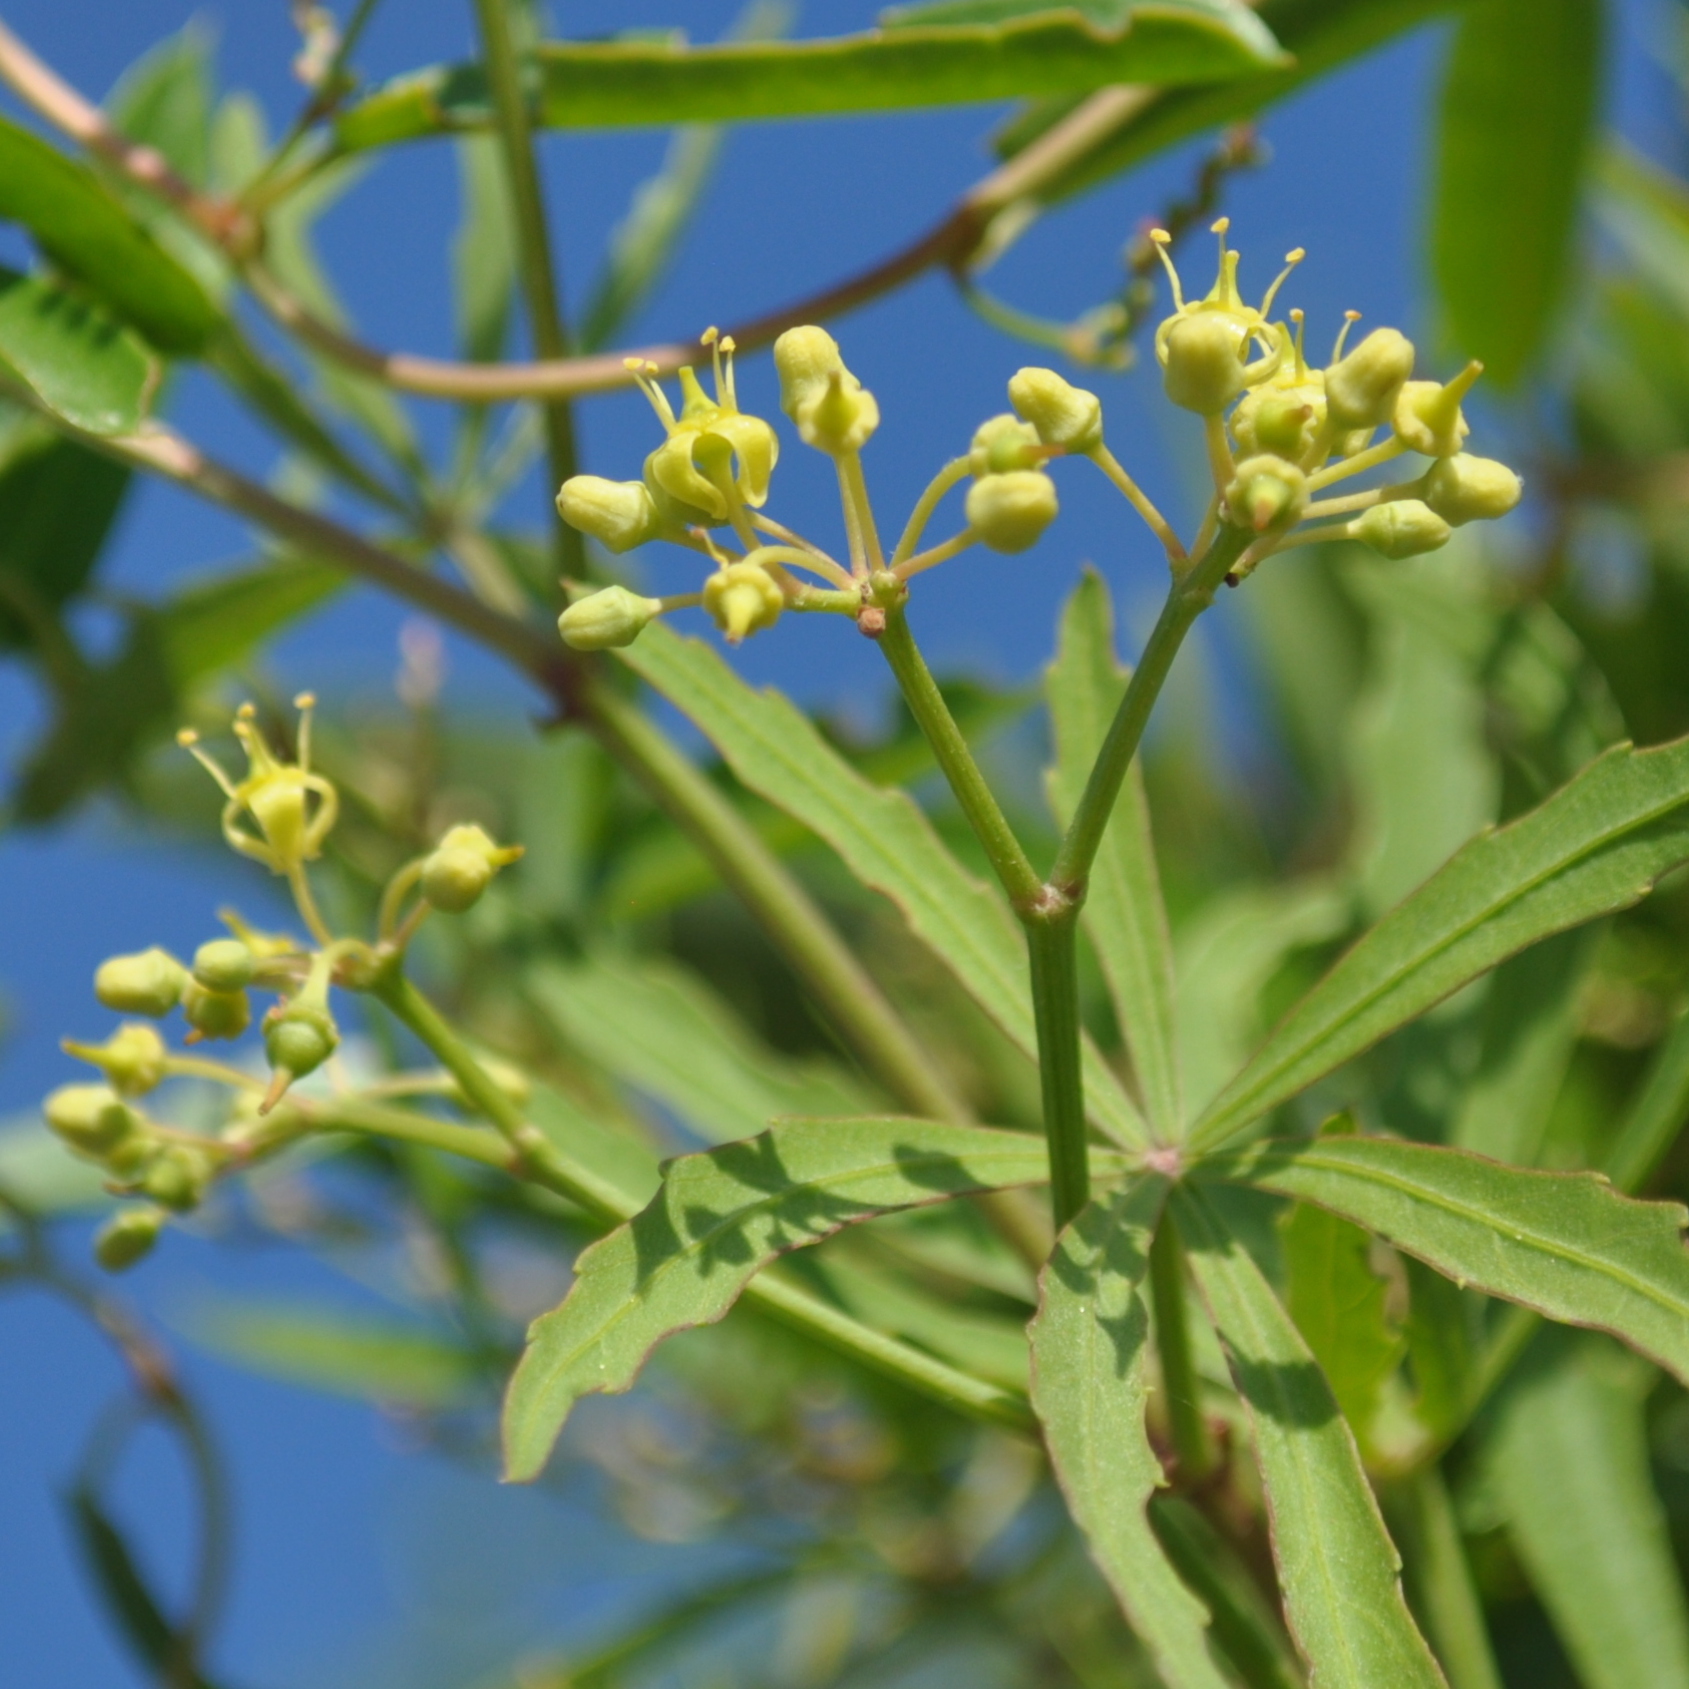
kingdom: Plantae
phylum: Tracheophyta
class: Magnoliopsida
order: Vitales
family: Vitaceae
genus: Cissus
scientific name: Cissus palmata
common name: Grape
